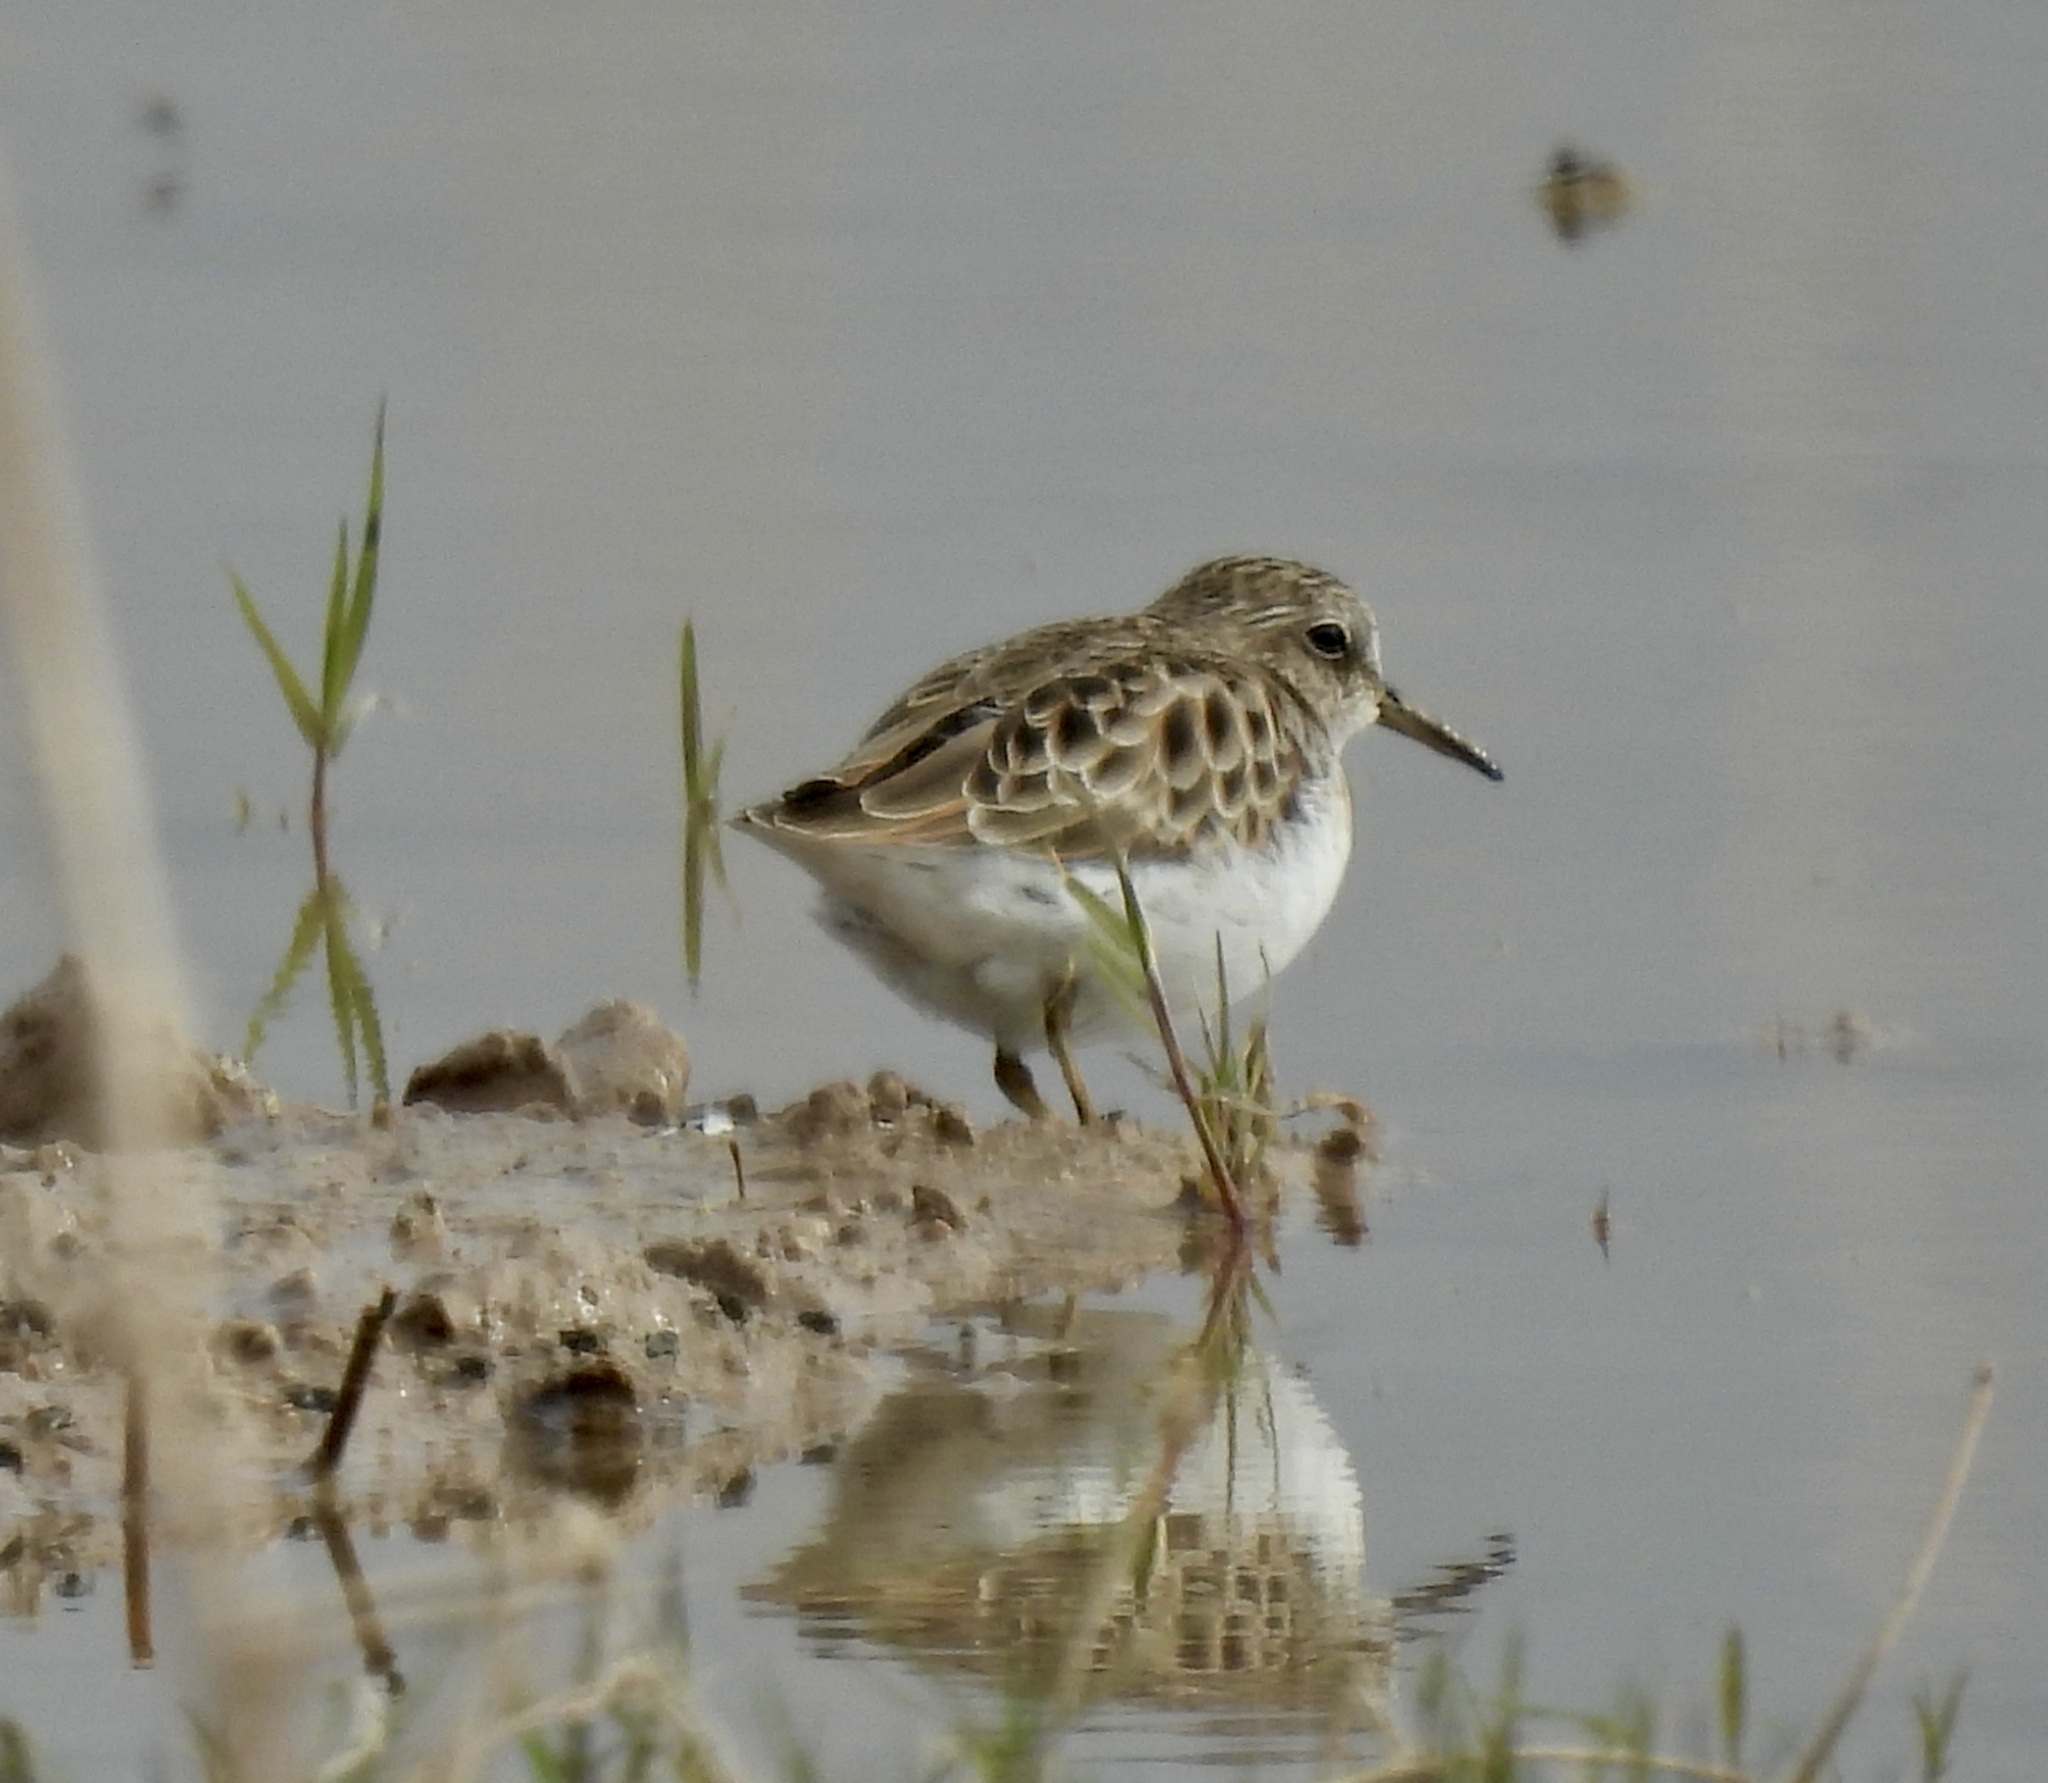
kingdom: Animalia
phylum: Chordata
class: Aves
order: Charadriiformes
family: Scolopacidae
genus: Calidris
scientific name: Calidris minutilla
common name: Least sandpiper
